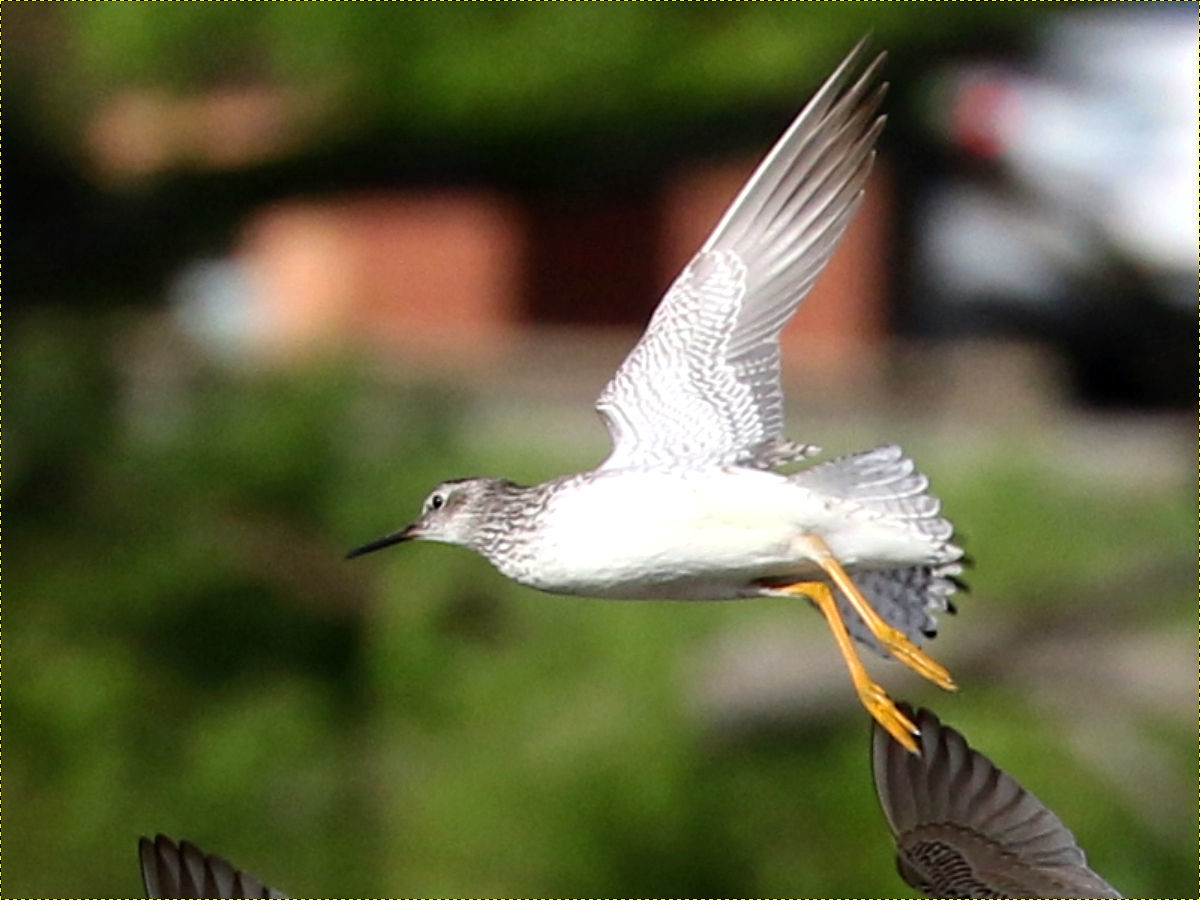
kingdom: Animalia
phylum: Chordata
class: Aves
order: Charadriiformes
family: Scolopacidae
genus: Tringa
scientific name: Tringa melanoleuca
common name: Greater yellowlegs
